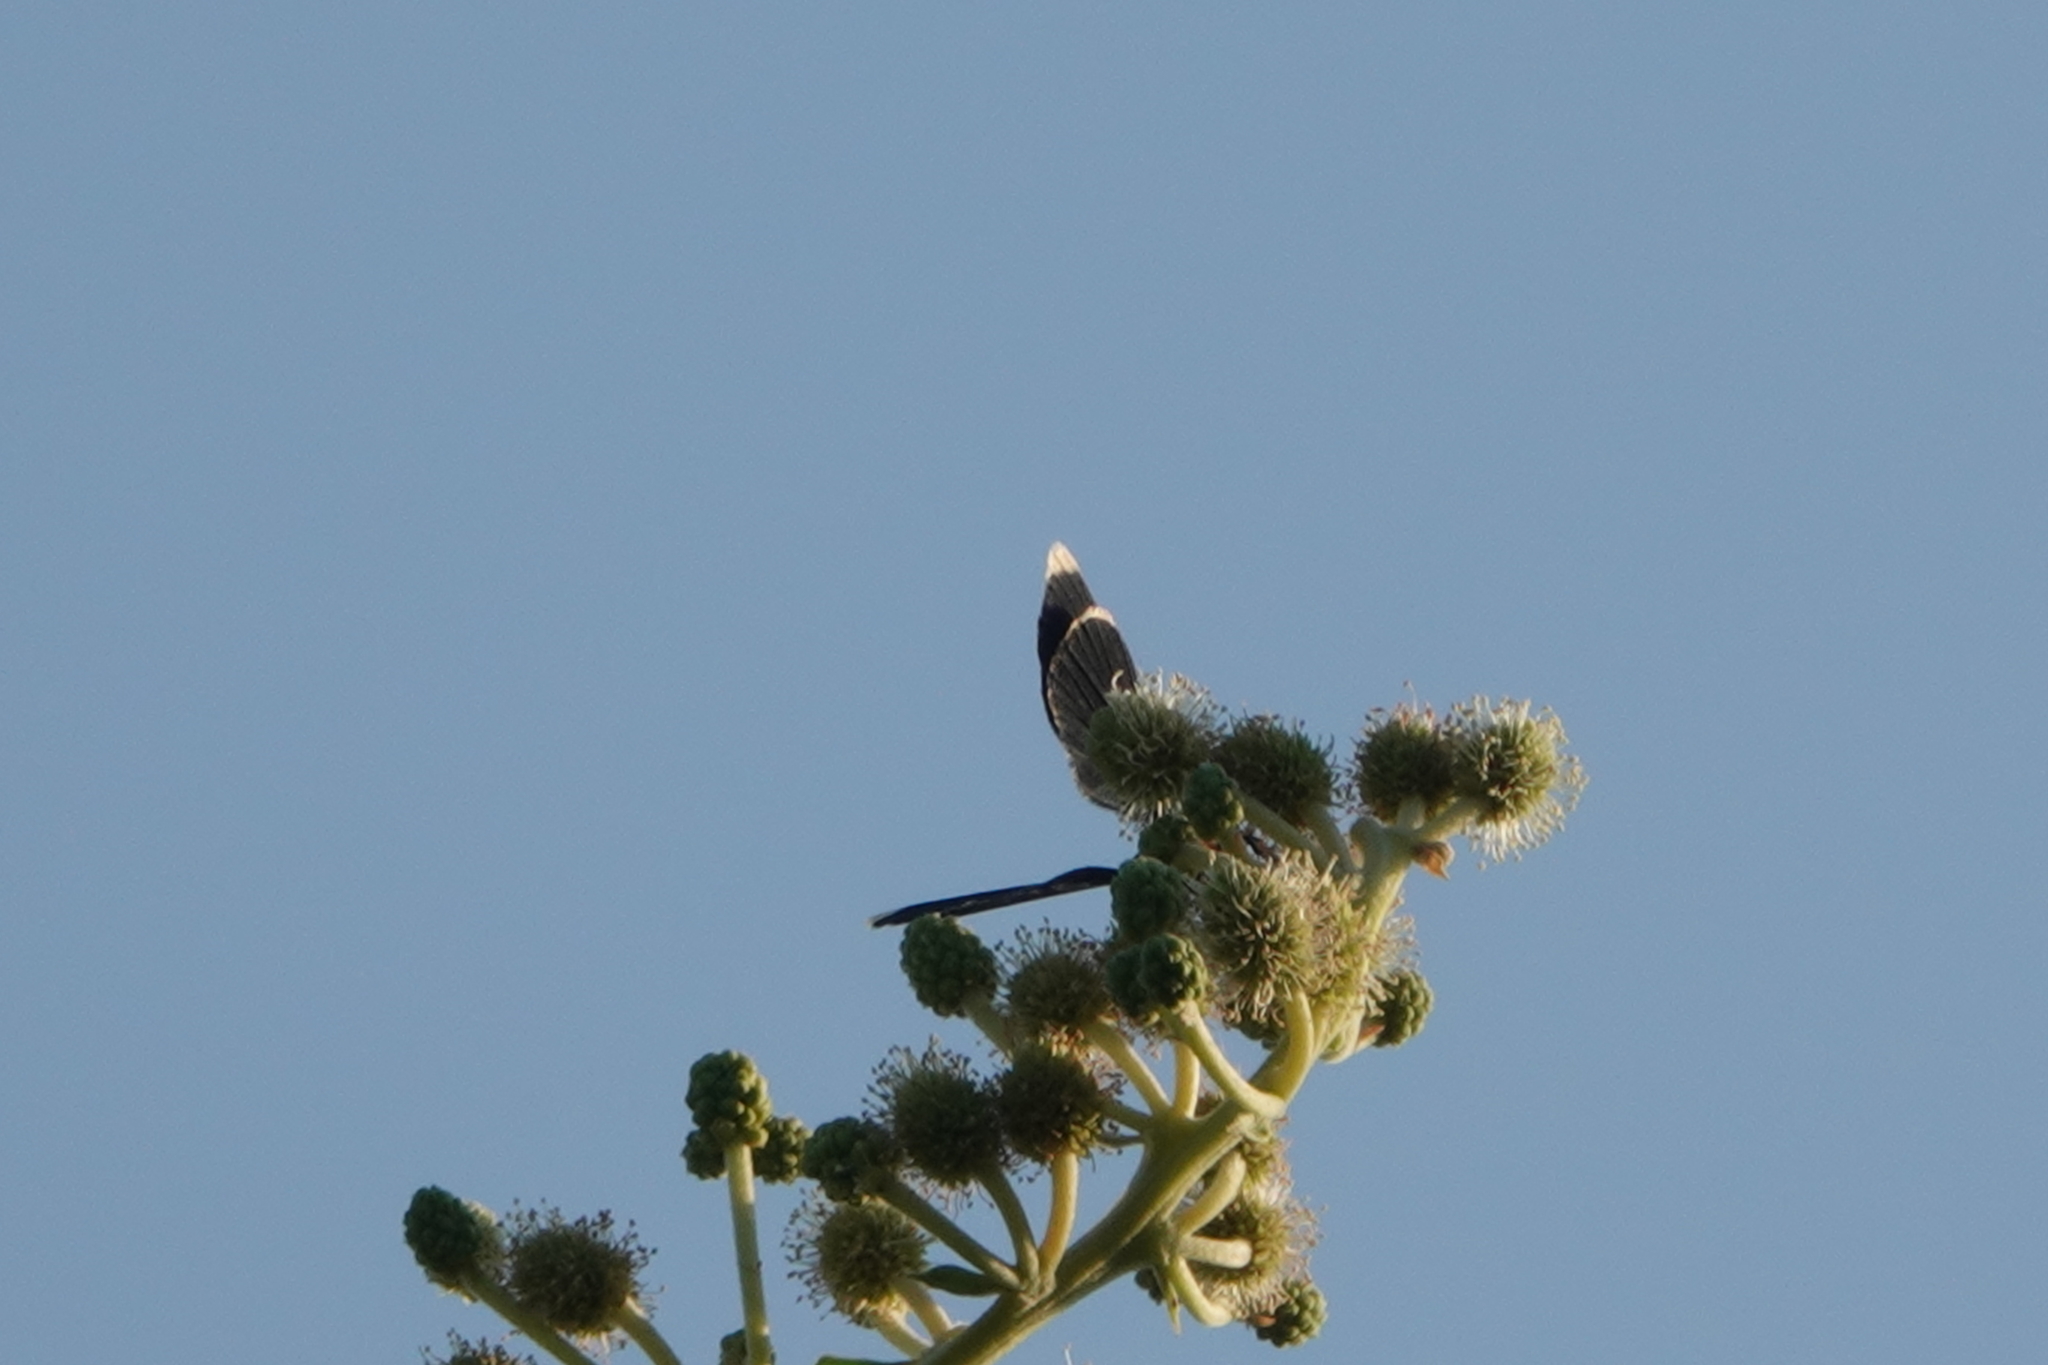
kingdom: Animalia
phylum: Arthropoda
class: Insecta
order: Lepidoptera
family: Geometridae
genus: Melanchroia
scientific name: Melanchroia chephise
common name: White-tipped black
